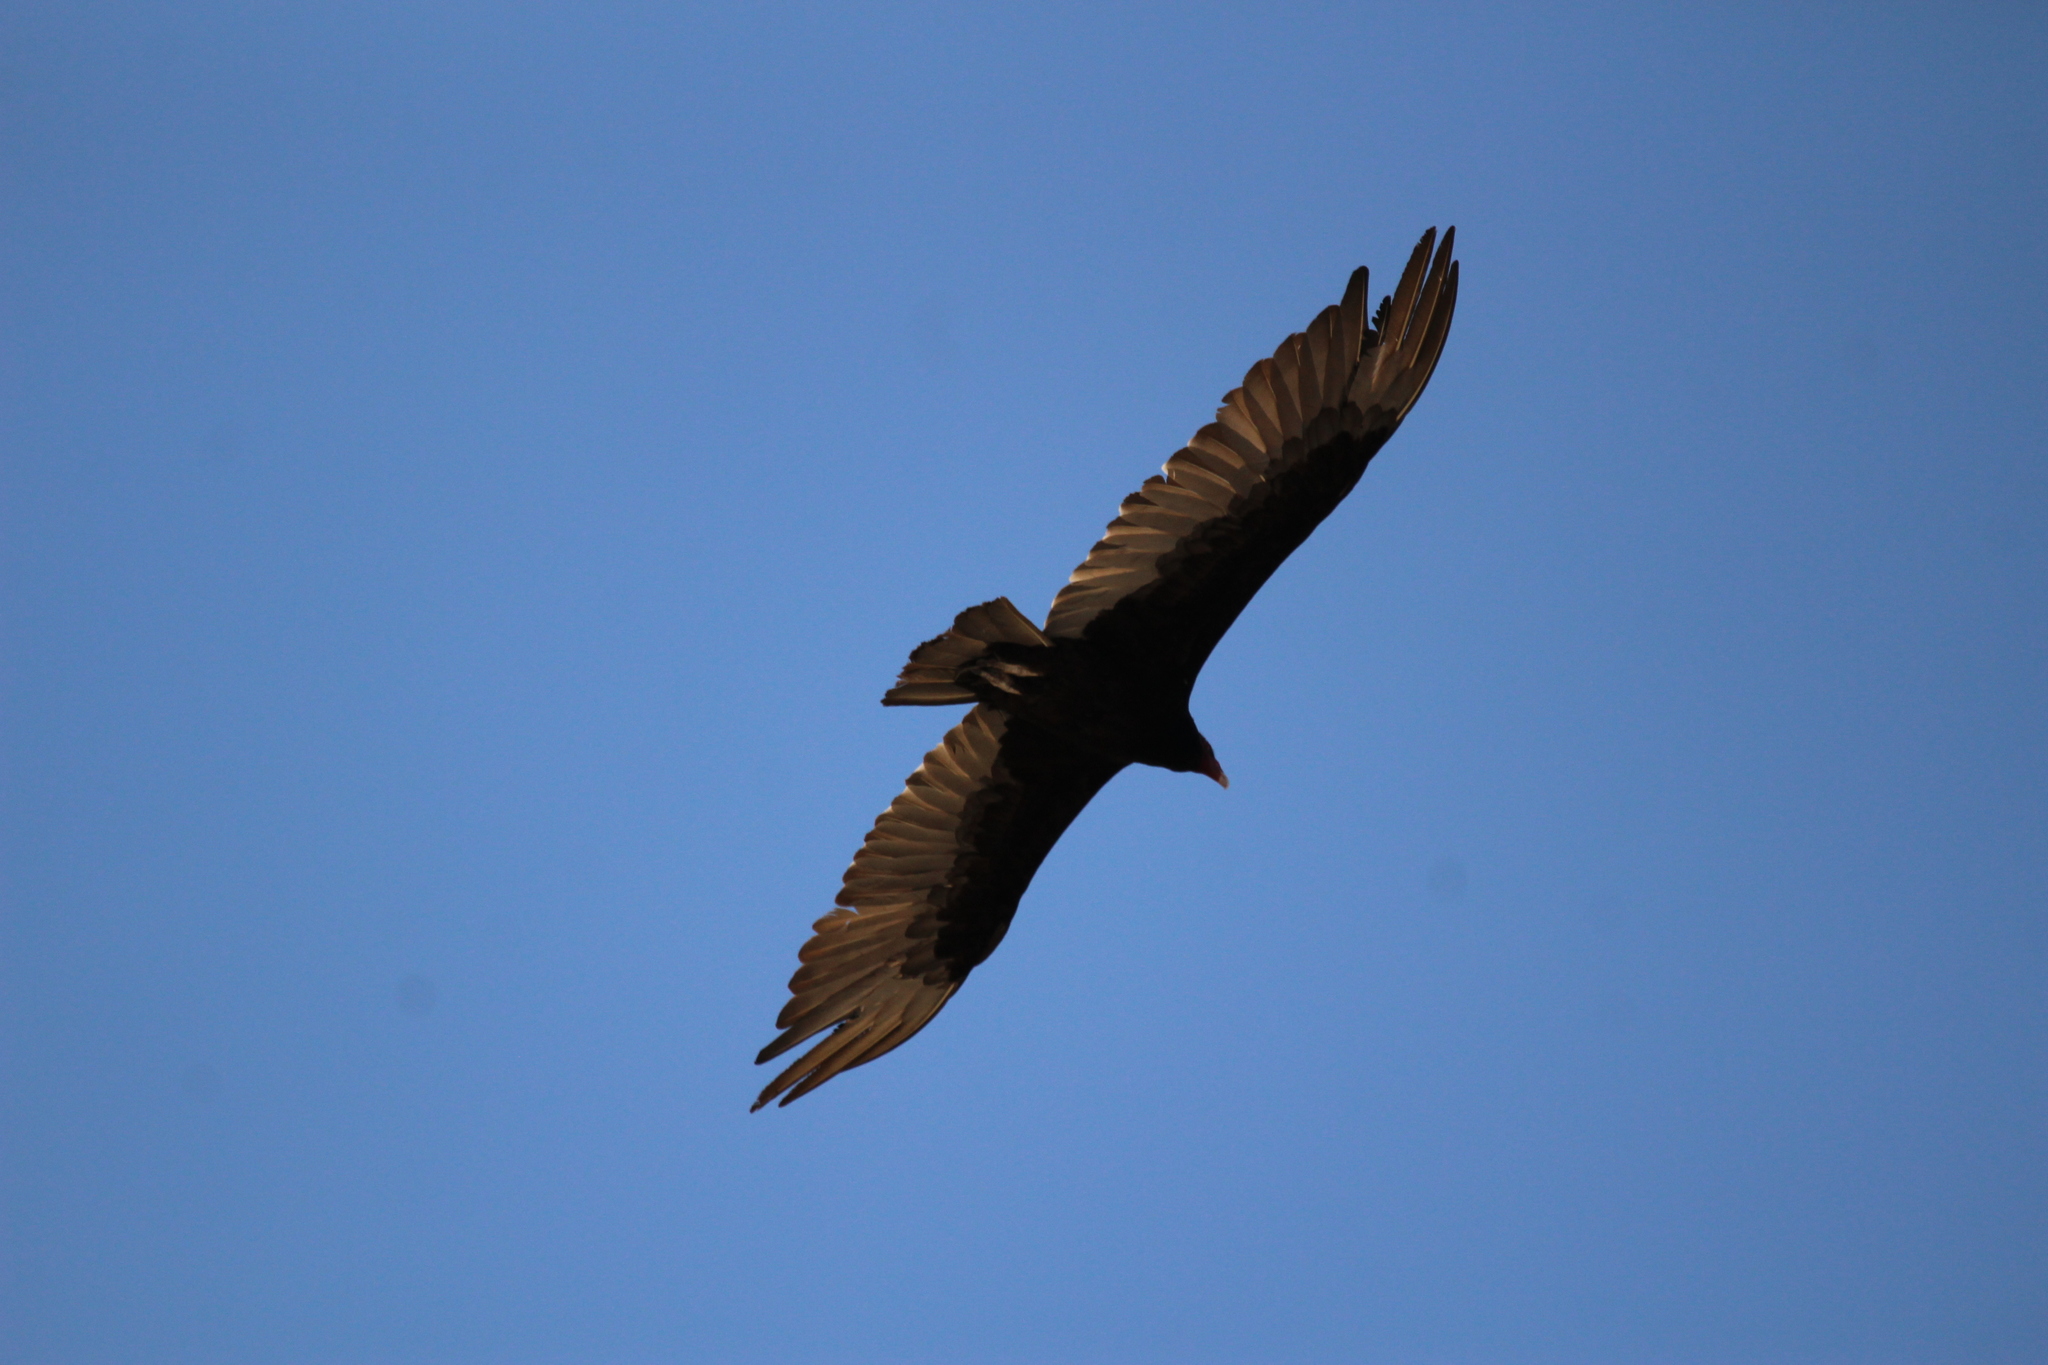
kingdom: Animalia
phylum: Chordata
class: Aves
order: Accipitriformes
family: Cathartidae
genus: Cathartes
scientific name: Cathartes aura
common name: Turkey vulture
